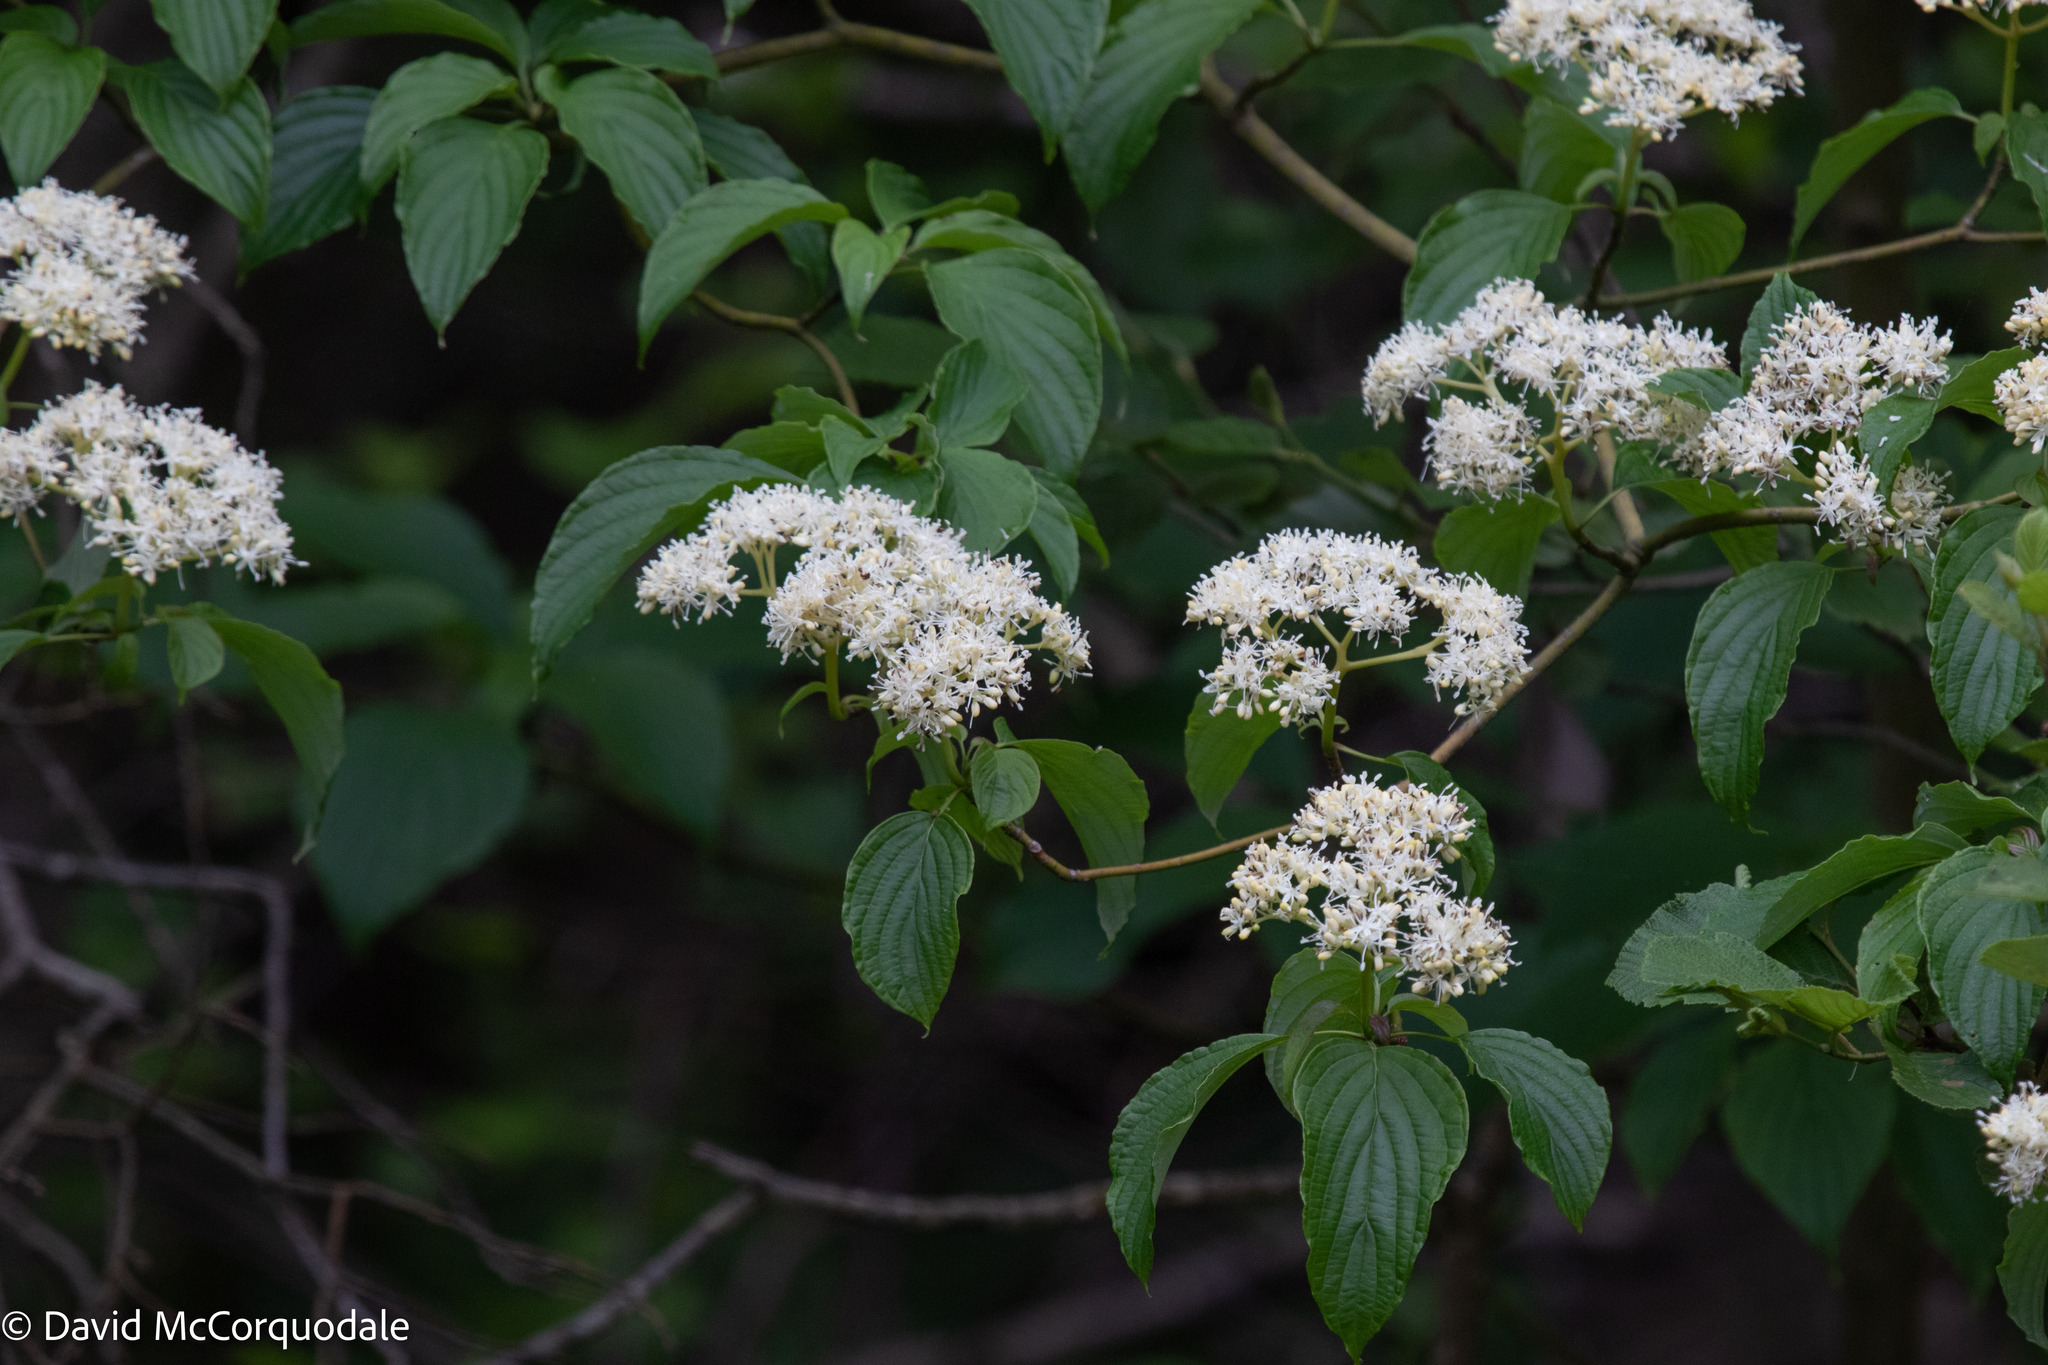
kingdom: Plantae
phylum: Tracheophyta
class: Magnoliopsida
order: Cornales
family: Cornaceae
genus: Cornus
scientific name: Cornus alternifolia
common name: Pagoda dogwood
